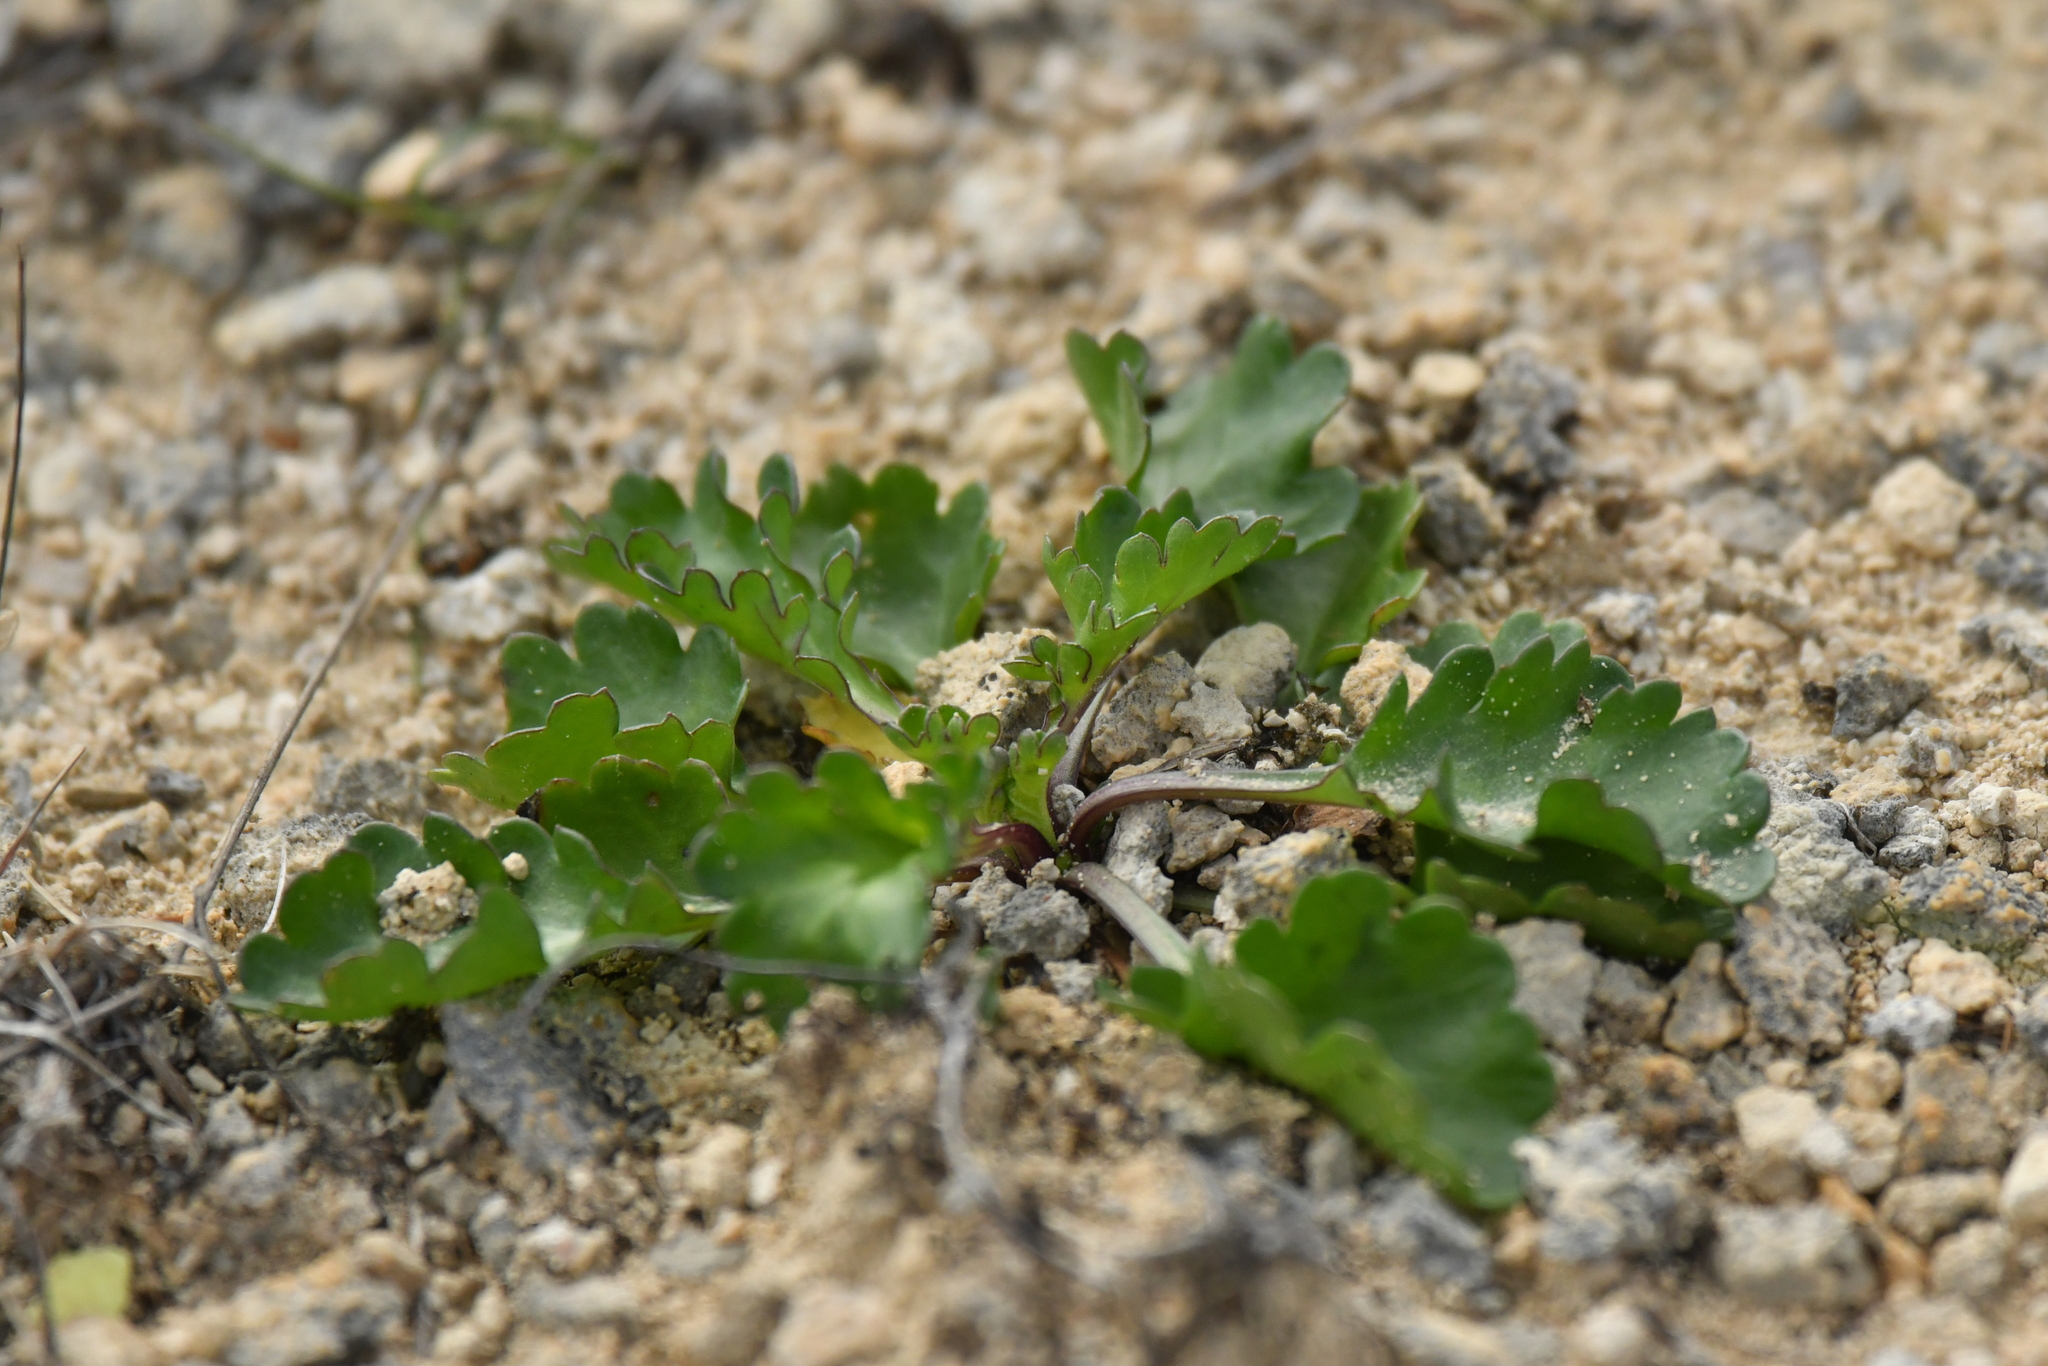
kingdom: Plantae
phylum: Tracheophyta
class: Magnoliopsida
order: Asterales
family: Asteraceae
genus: Leucanthemum
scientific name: Leucanthemum vulgare
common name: Oxeye daisy
